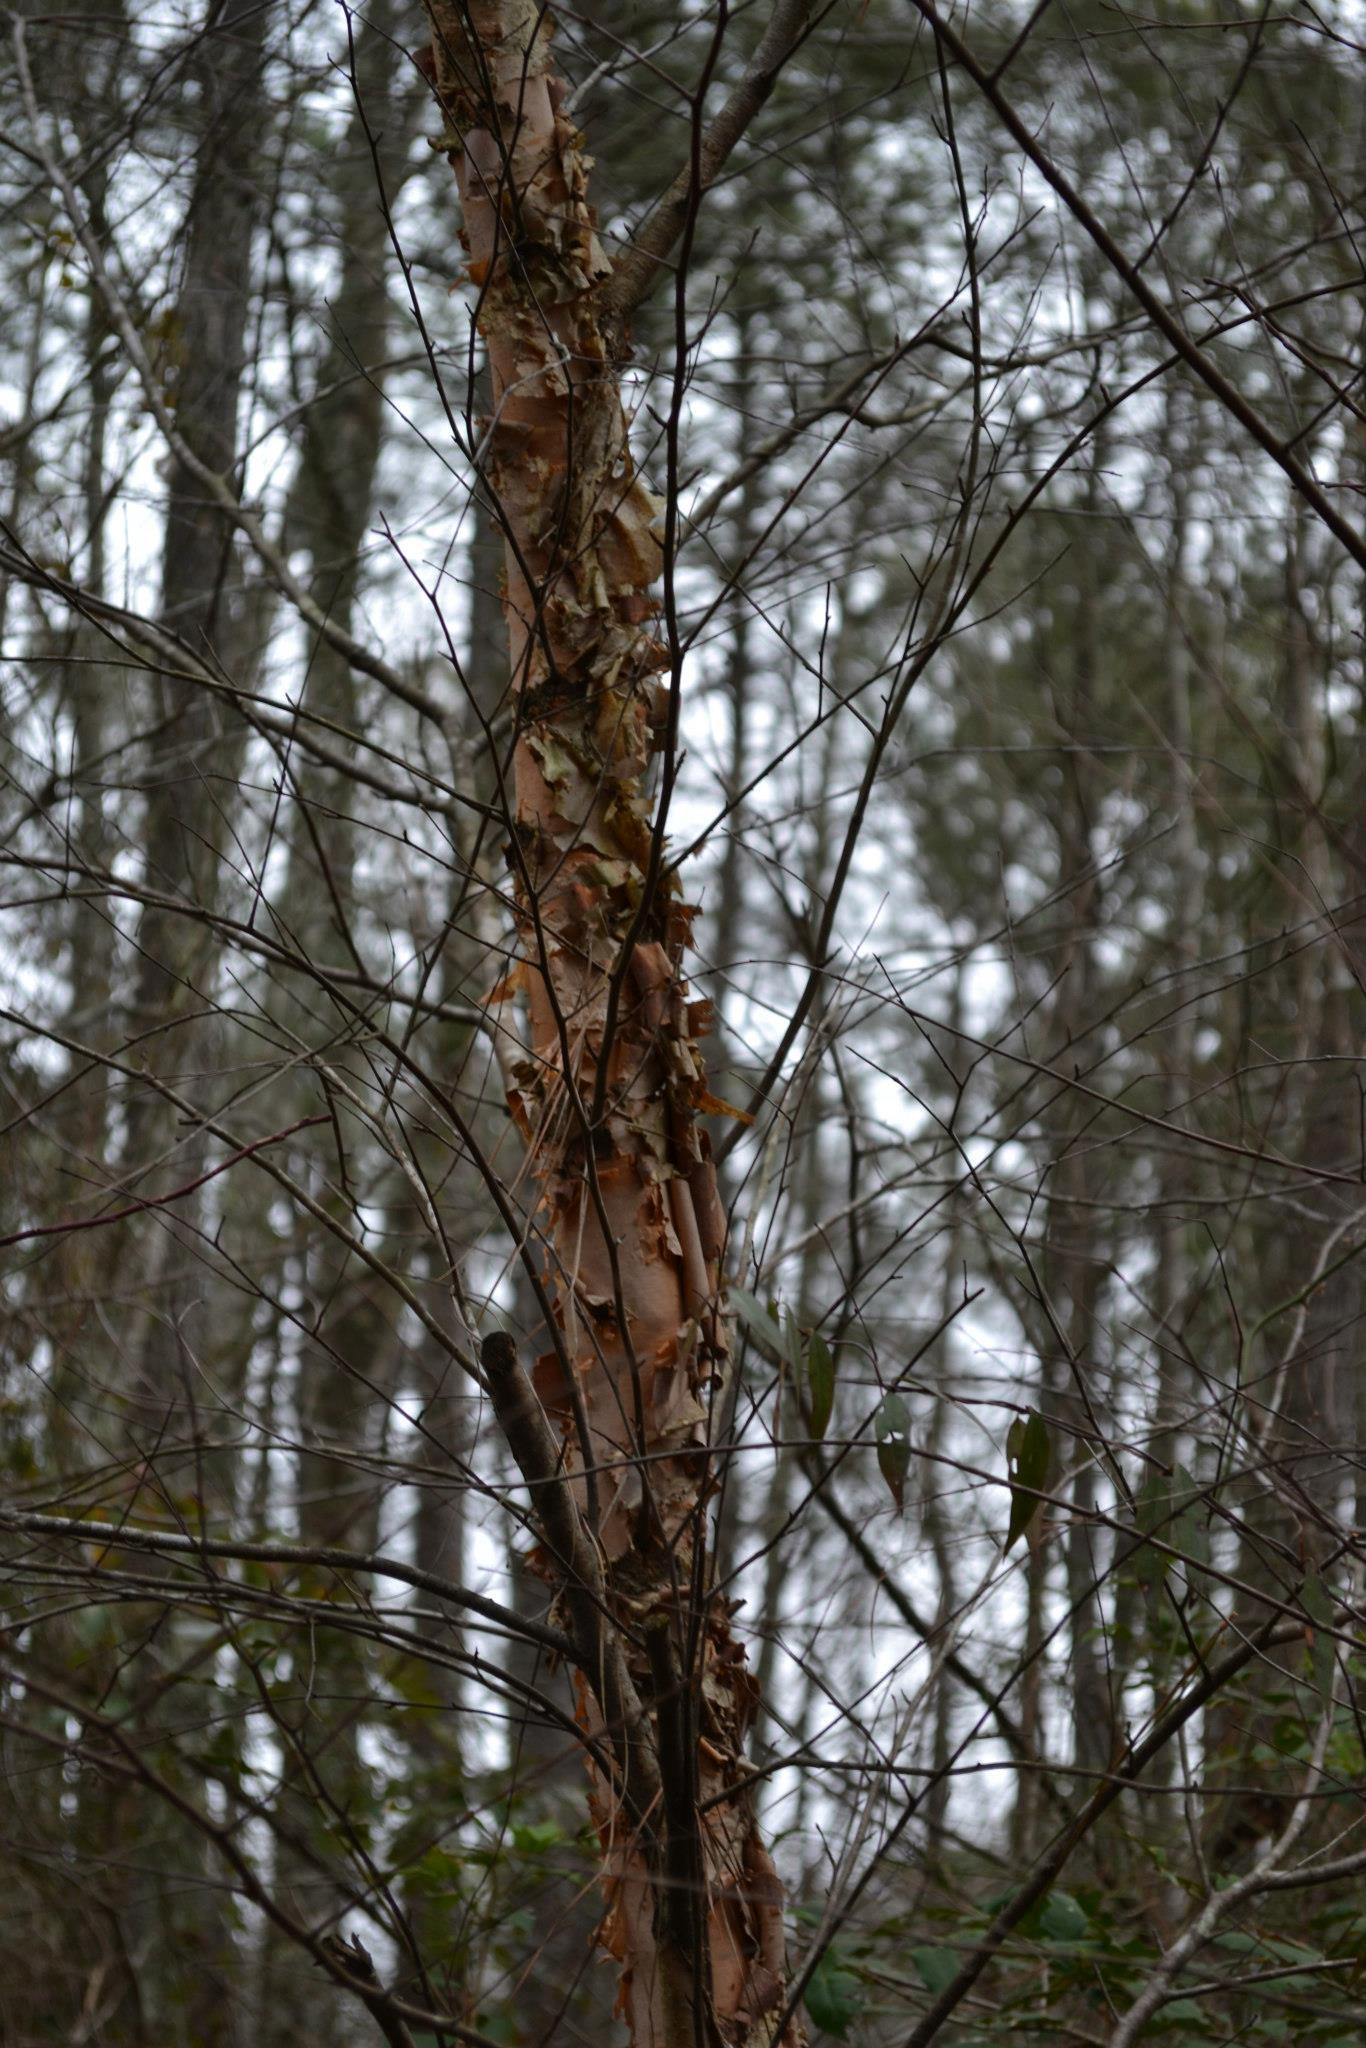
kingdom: Plantae
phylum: Tracheophyta
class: Magnoliopsida
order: Fagales
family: Betulaceae
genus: Betula
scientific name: Betula nigra
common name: Black birch
